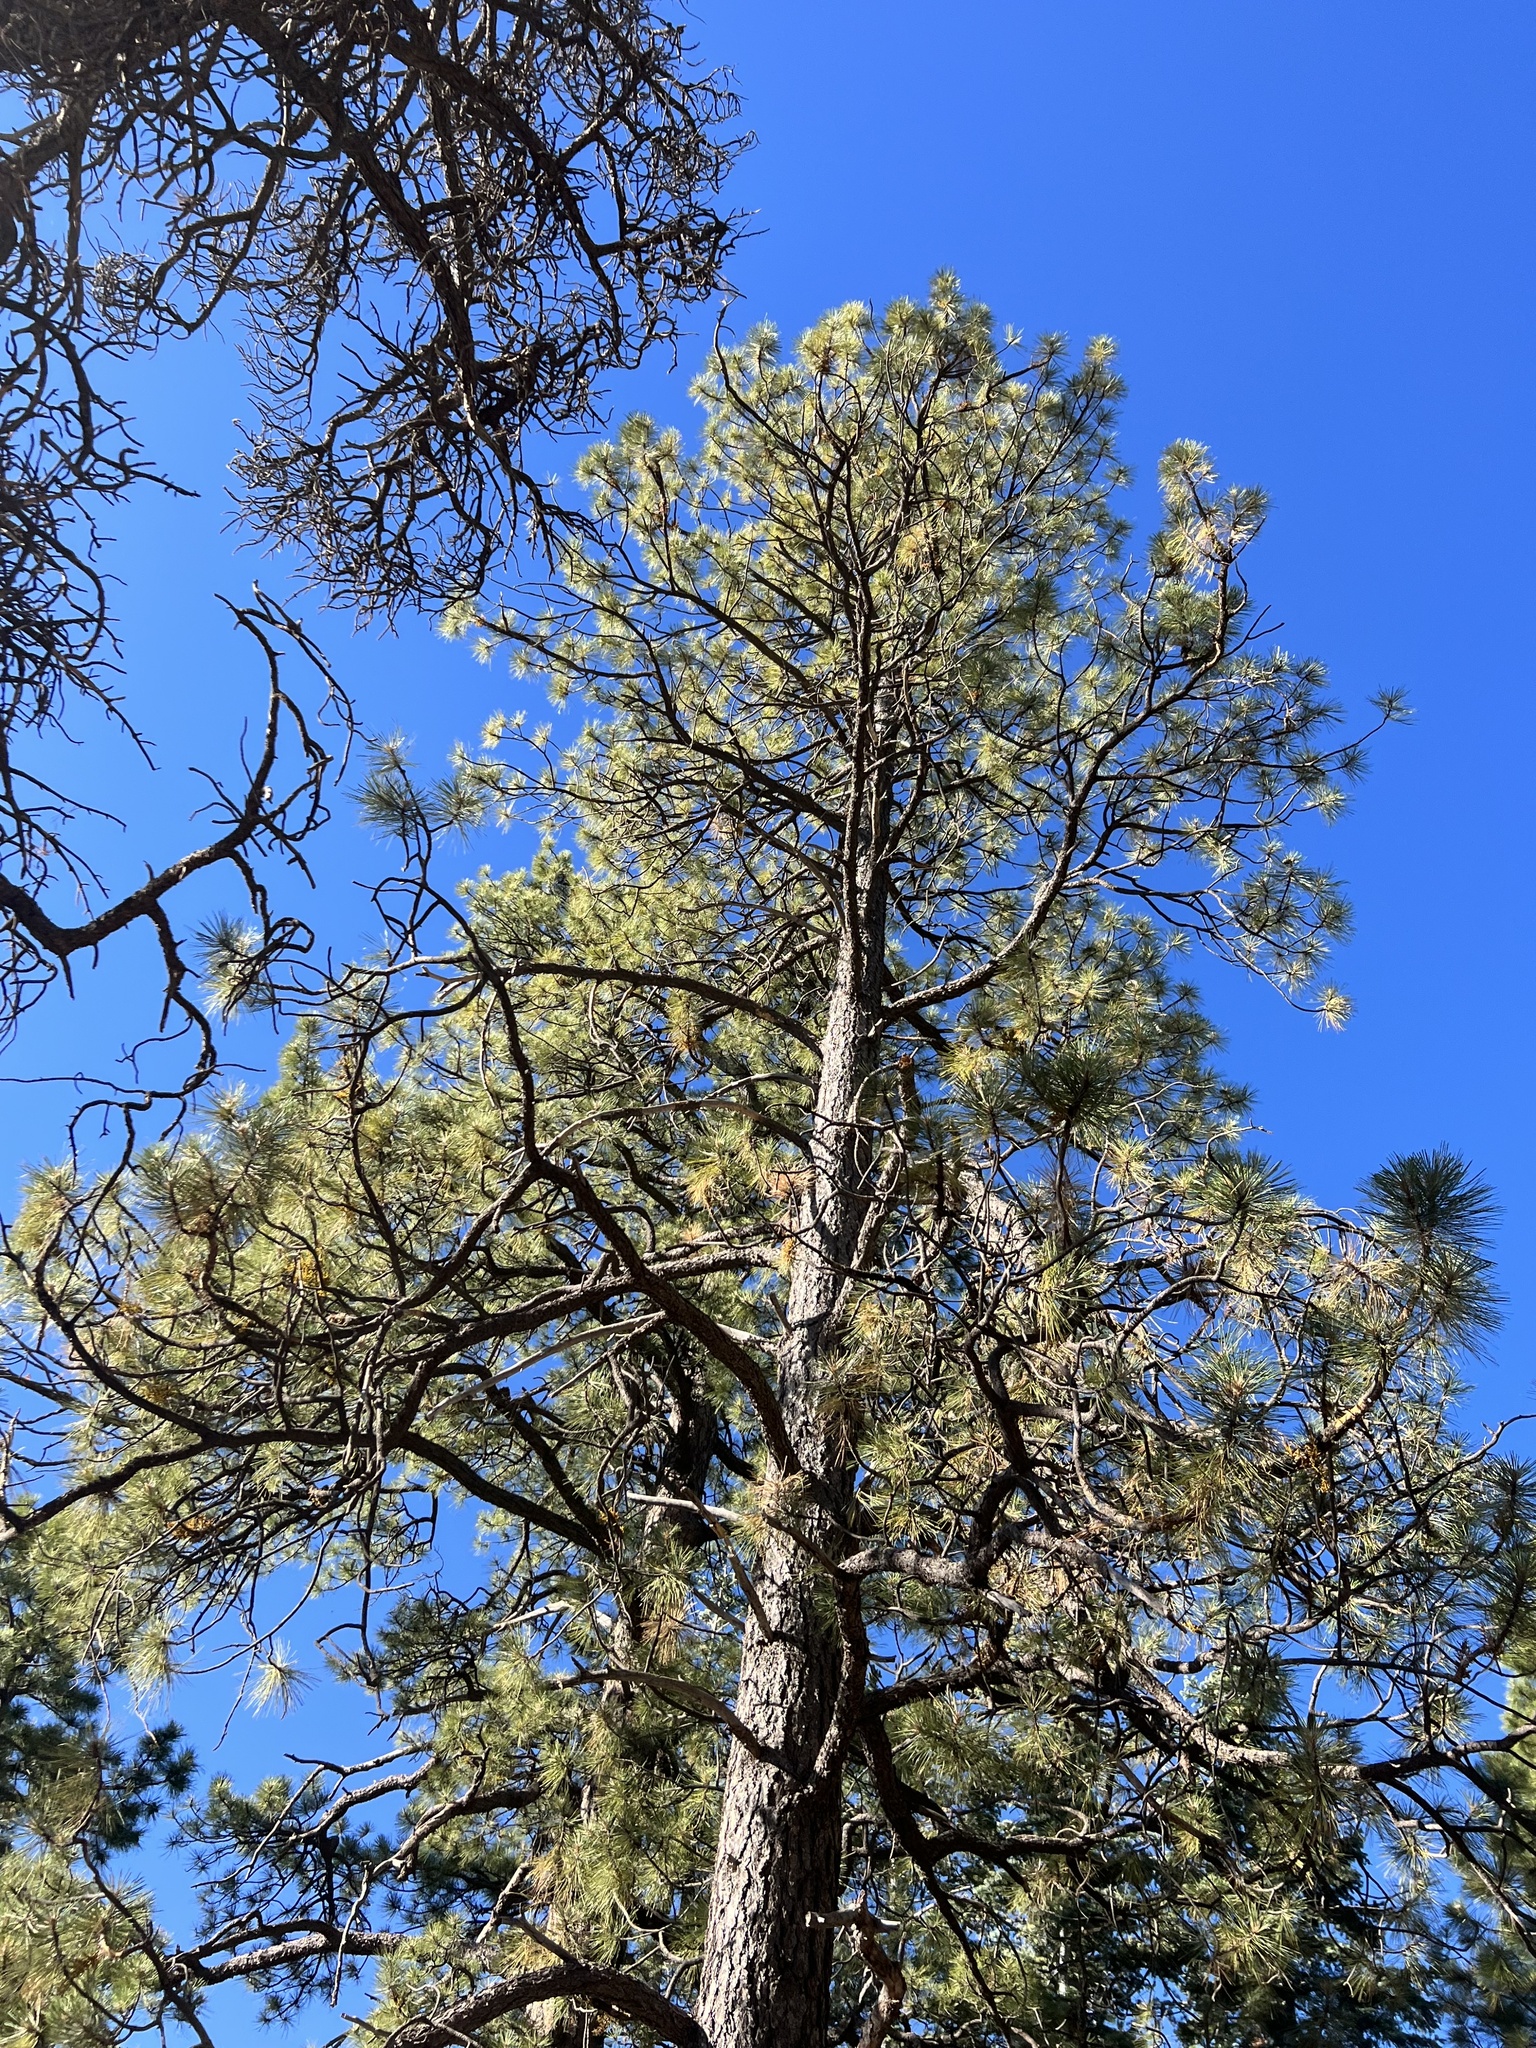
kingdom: Plantae
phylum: Tracheophyta
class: Pinopsida
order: Pinales
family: Pinaceae
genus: Pinus
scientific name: Pinus ponderosa
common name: Western yellow-pine
